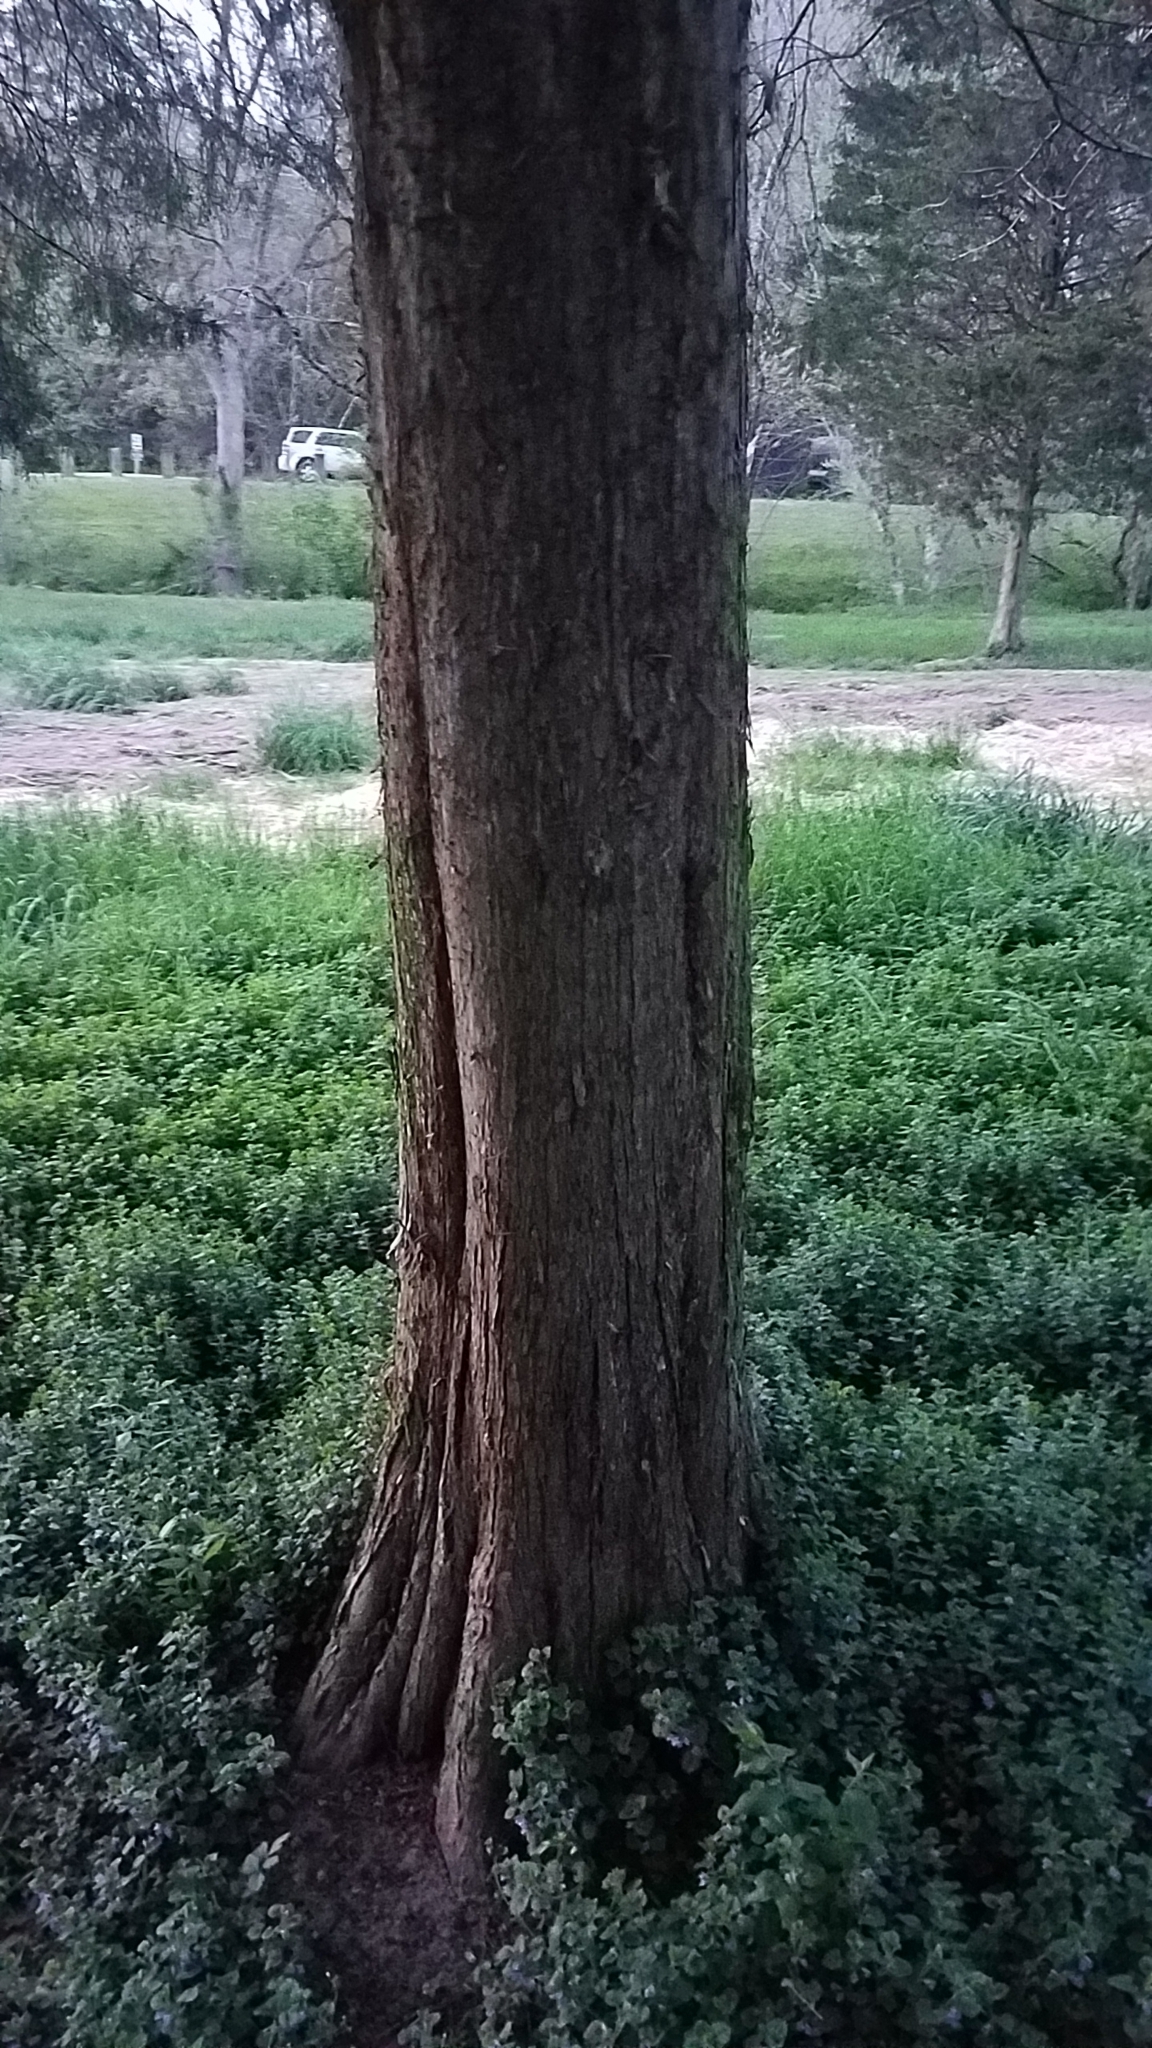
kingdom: Plantae
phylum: Tracheophyta
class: Pinopsida
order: Pinales
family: Cupressaceae
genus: Juniperus
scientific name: Juniperus virginiana
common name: Red juniper
